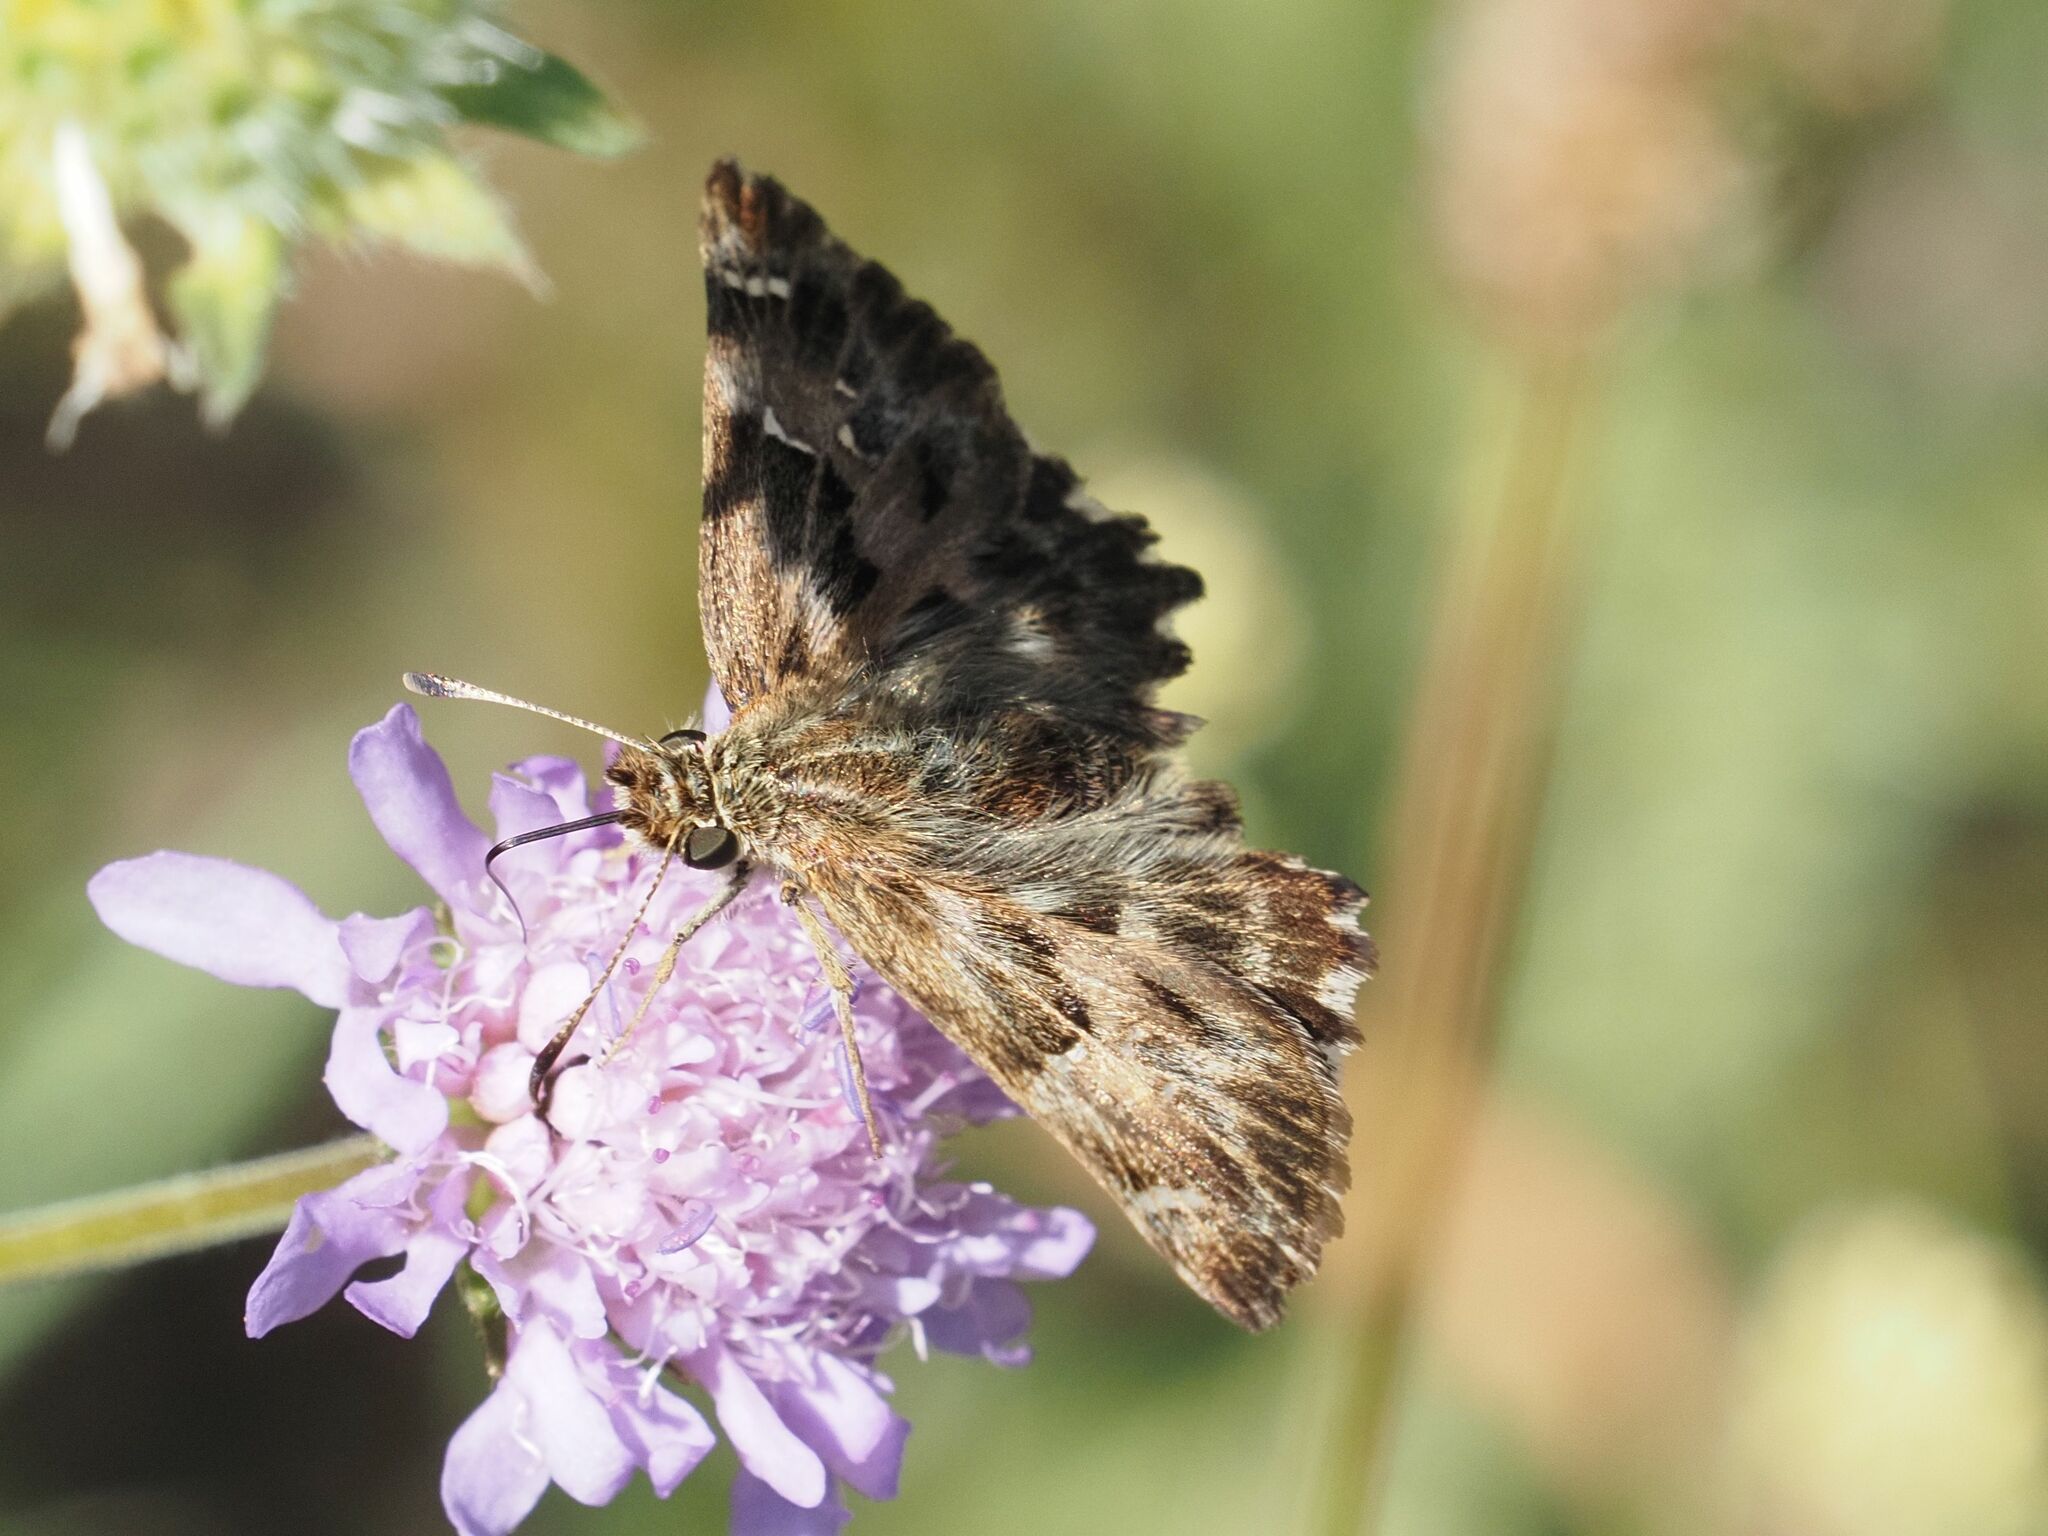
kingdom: Animalia
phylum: Arthropoda
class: Insecta
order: Lepidoptera
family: Hesperiidae
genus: Carcharodus
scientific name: Carcharodus alceae
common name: Mallow skipper
